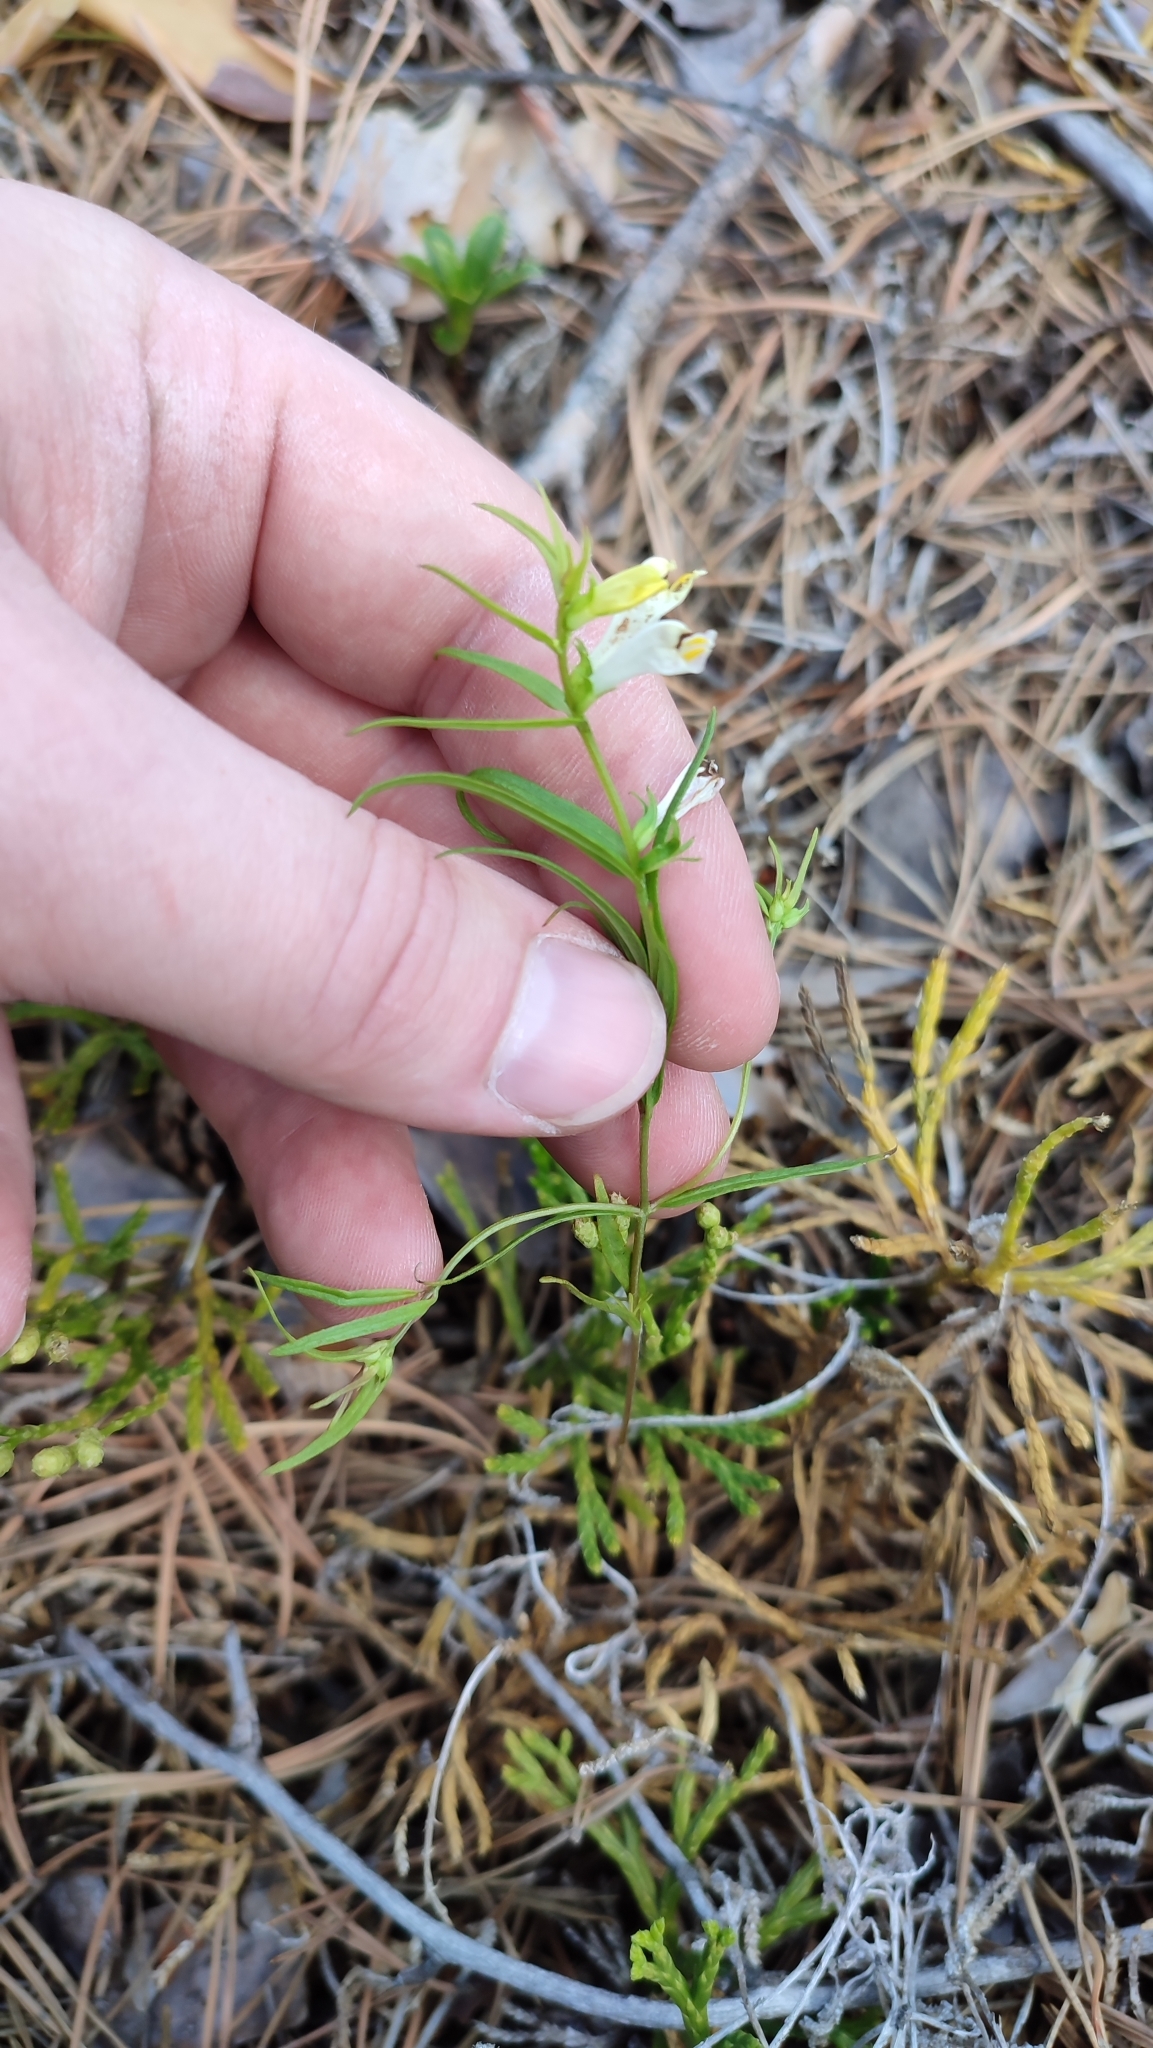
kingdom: Plantae
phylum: Tracheophyta
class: Magnoliopsida
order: Lamiales
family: Orobanchaceae
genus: Melampyrum
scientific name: Melampyrum pratense
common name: Common cow-wheat
